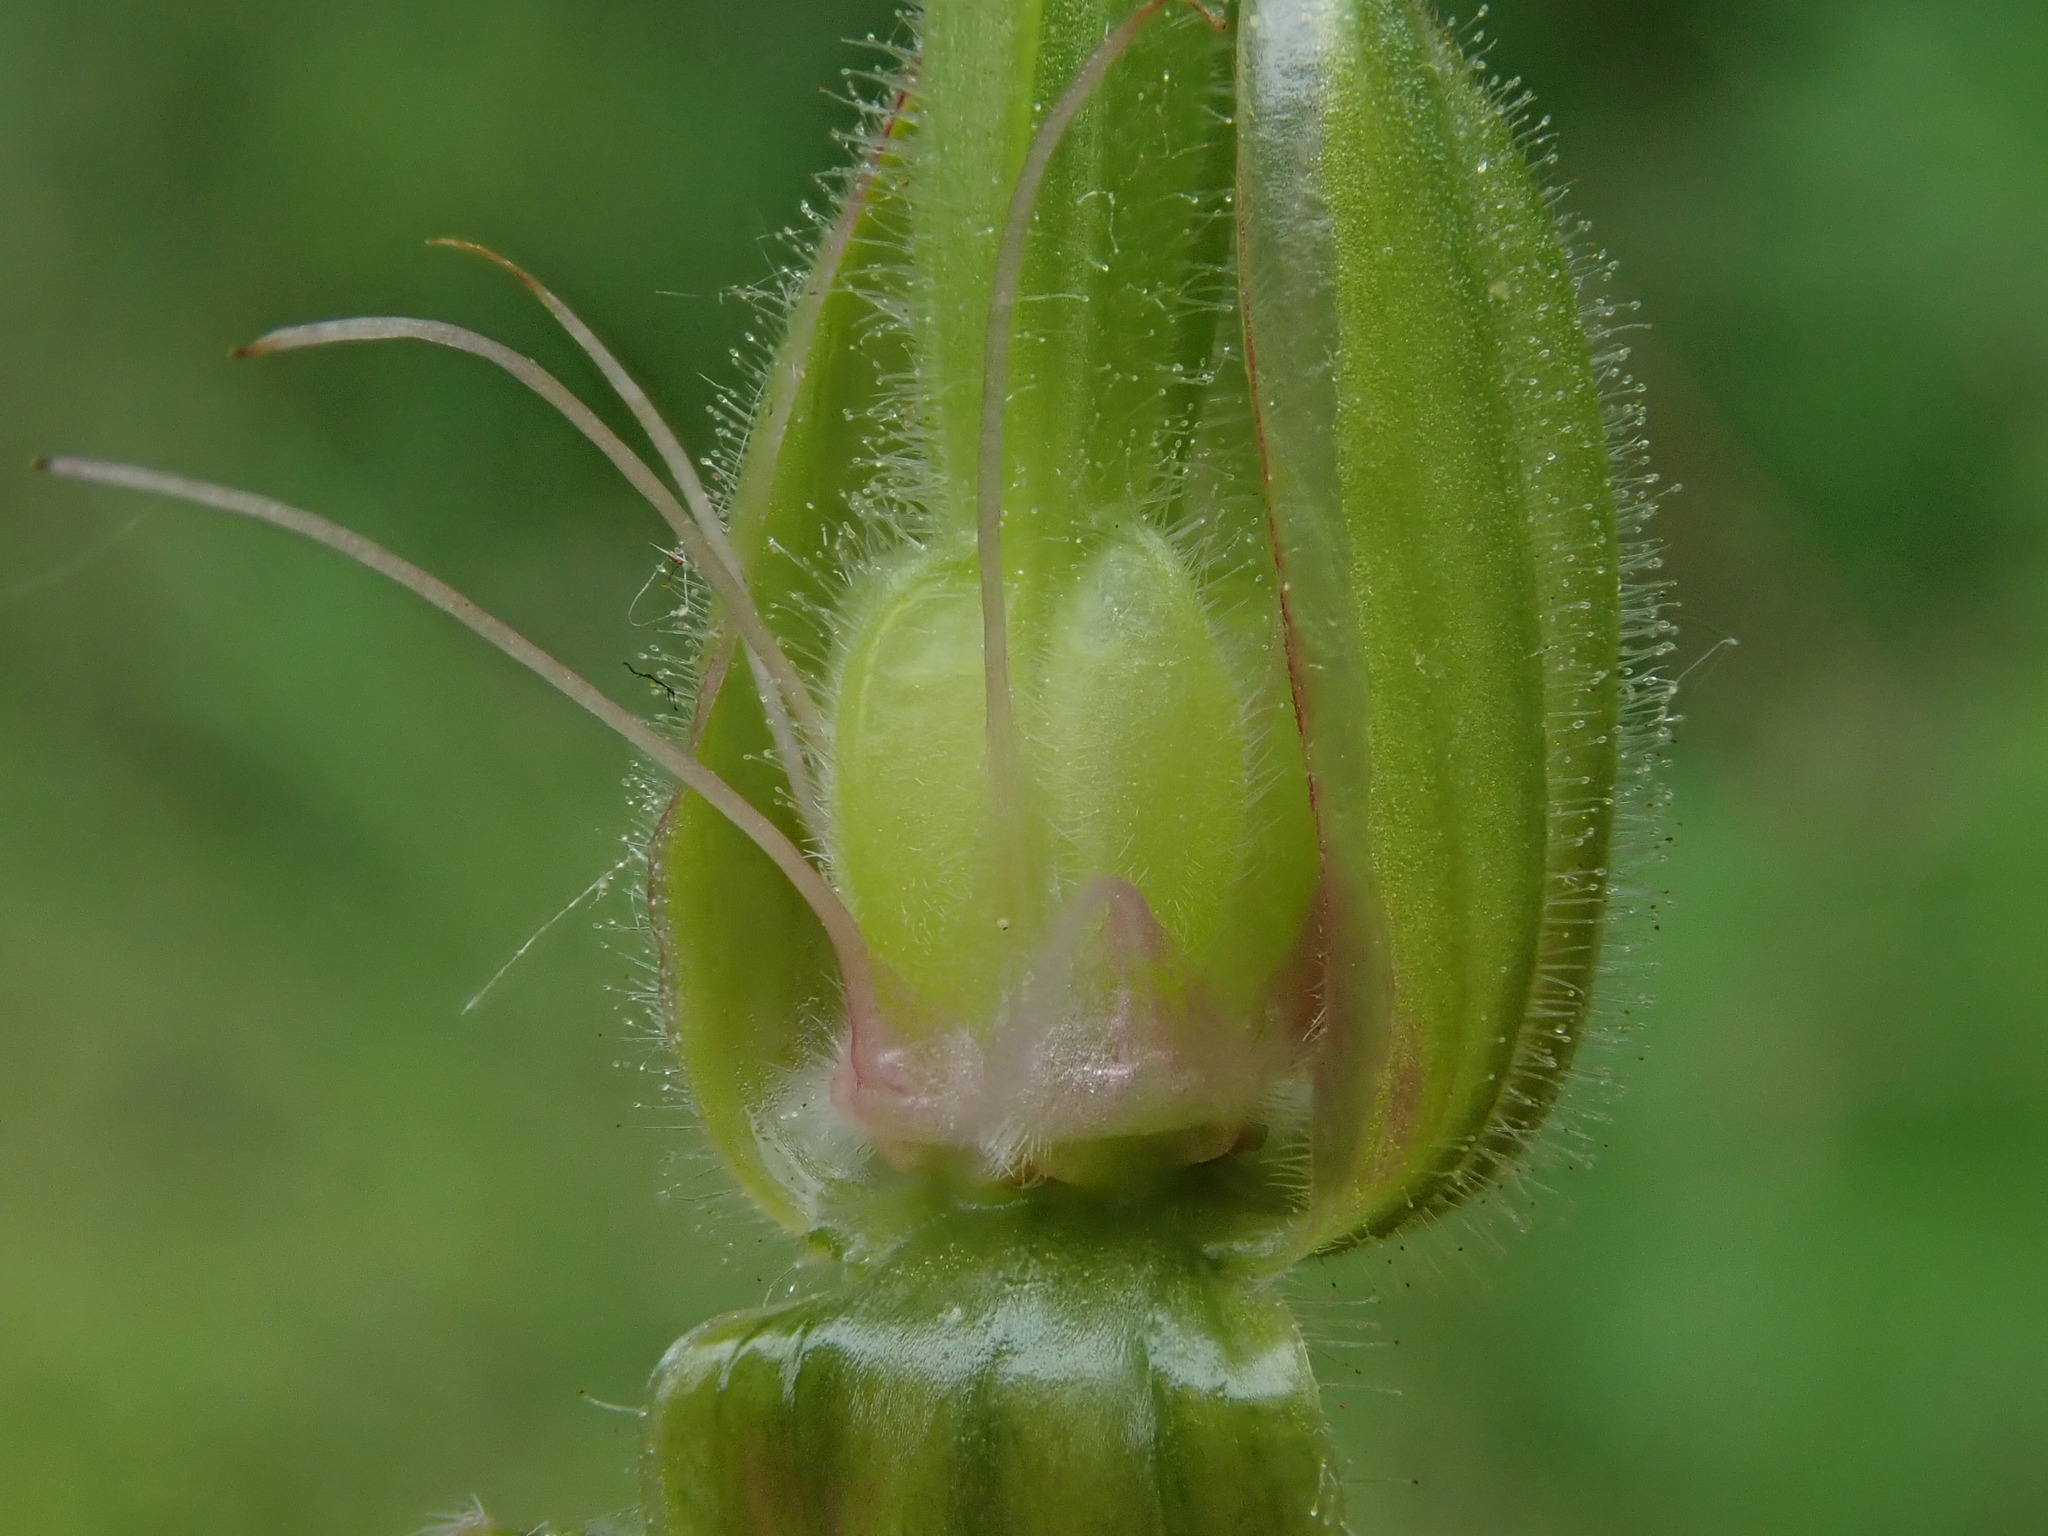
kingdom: Plantae
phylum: Tracheophyta
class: Magnoliopsida
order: Geraniales
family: Geraniaceae
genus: Geranium
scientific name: Geranium pratense
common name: Meadow crane's-bill
